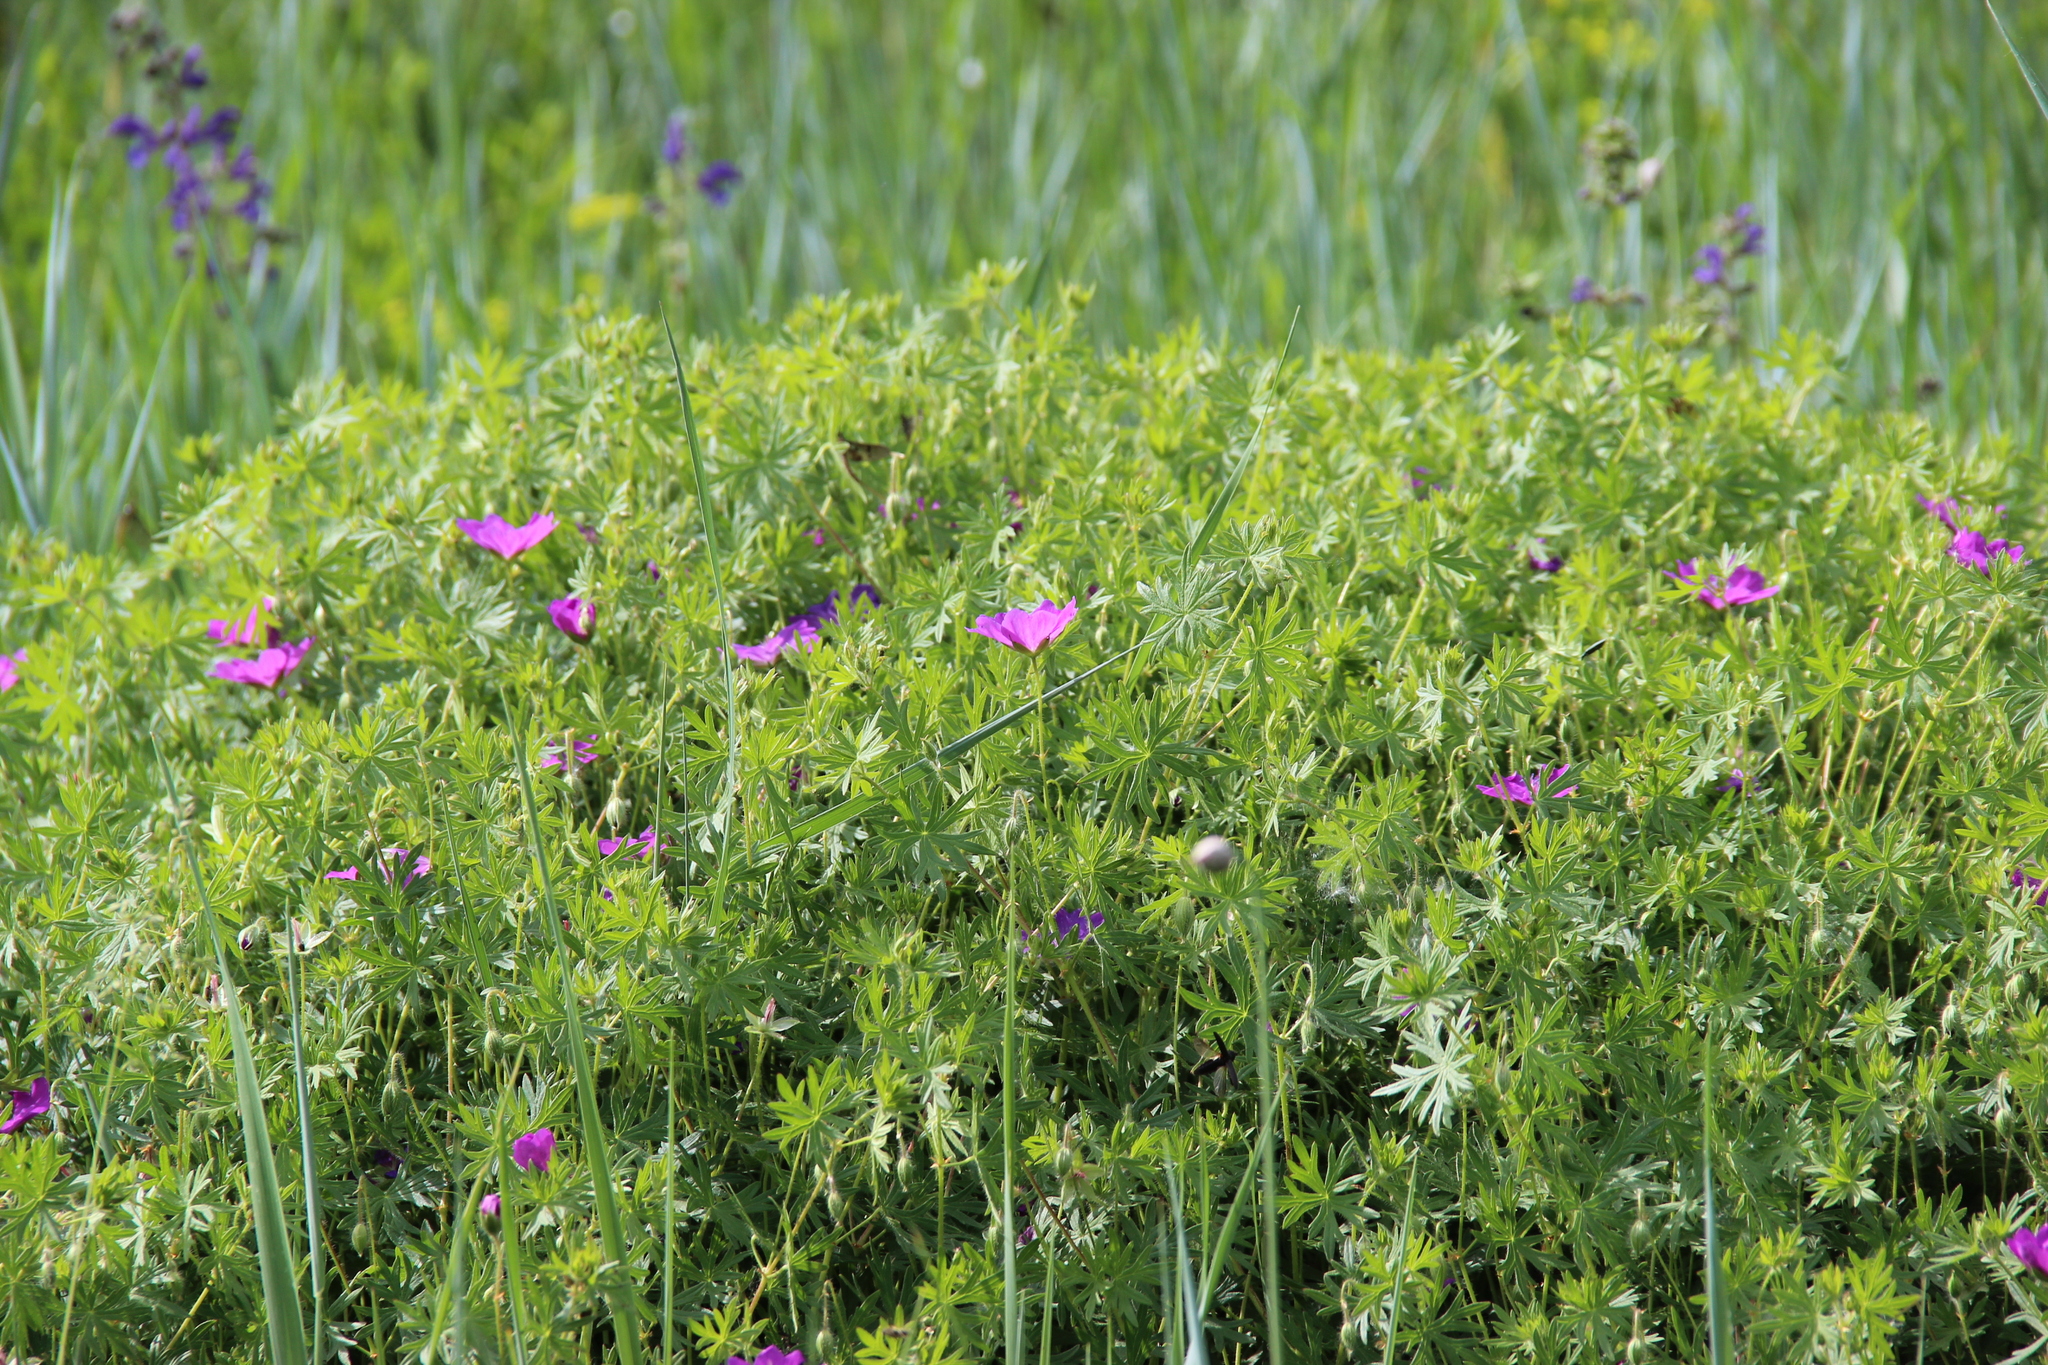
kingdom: Plantae
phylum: Tracheophyta
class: Magnoliopsida
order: Geraniales
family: Geraniaceae
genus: Geranium
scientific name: Geranium sanguineum
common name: Bloody crane's-bill
